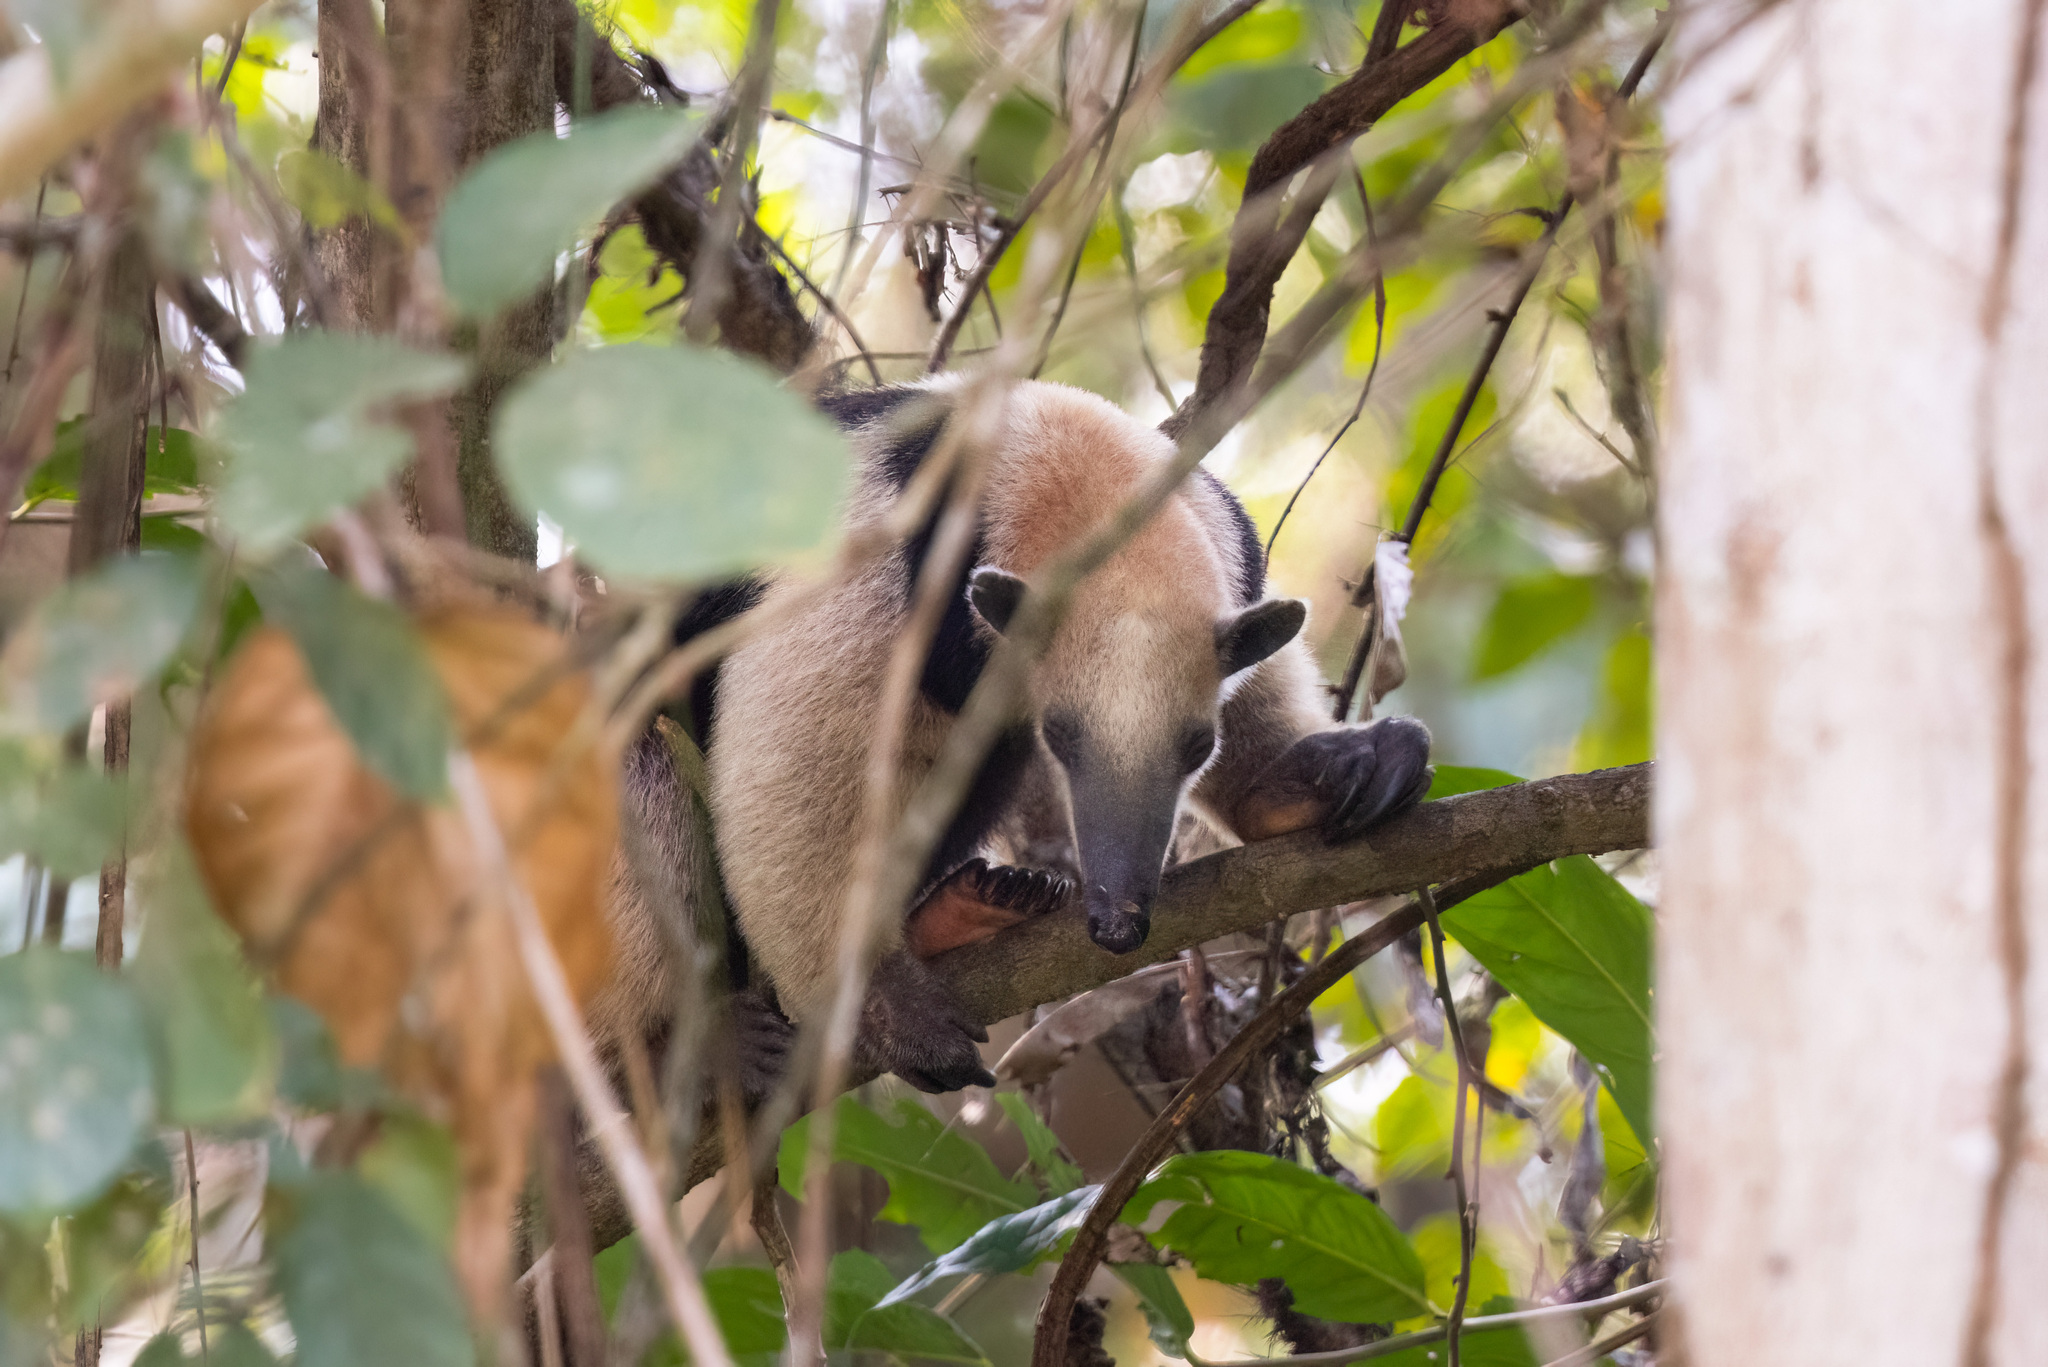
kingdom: Animalia
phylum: Chordata
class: Mammalia
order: Pilosa
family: Myrmecophagidae
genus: Tamandua
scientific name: Tamandua mexicana
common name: Northern tamandua
